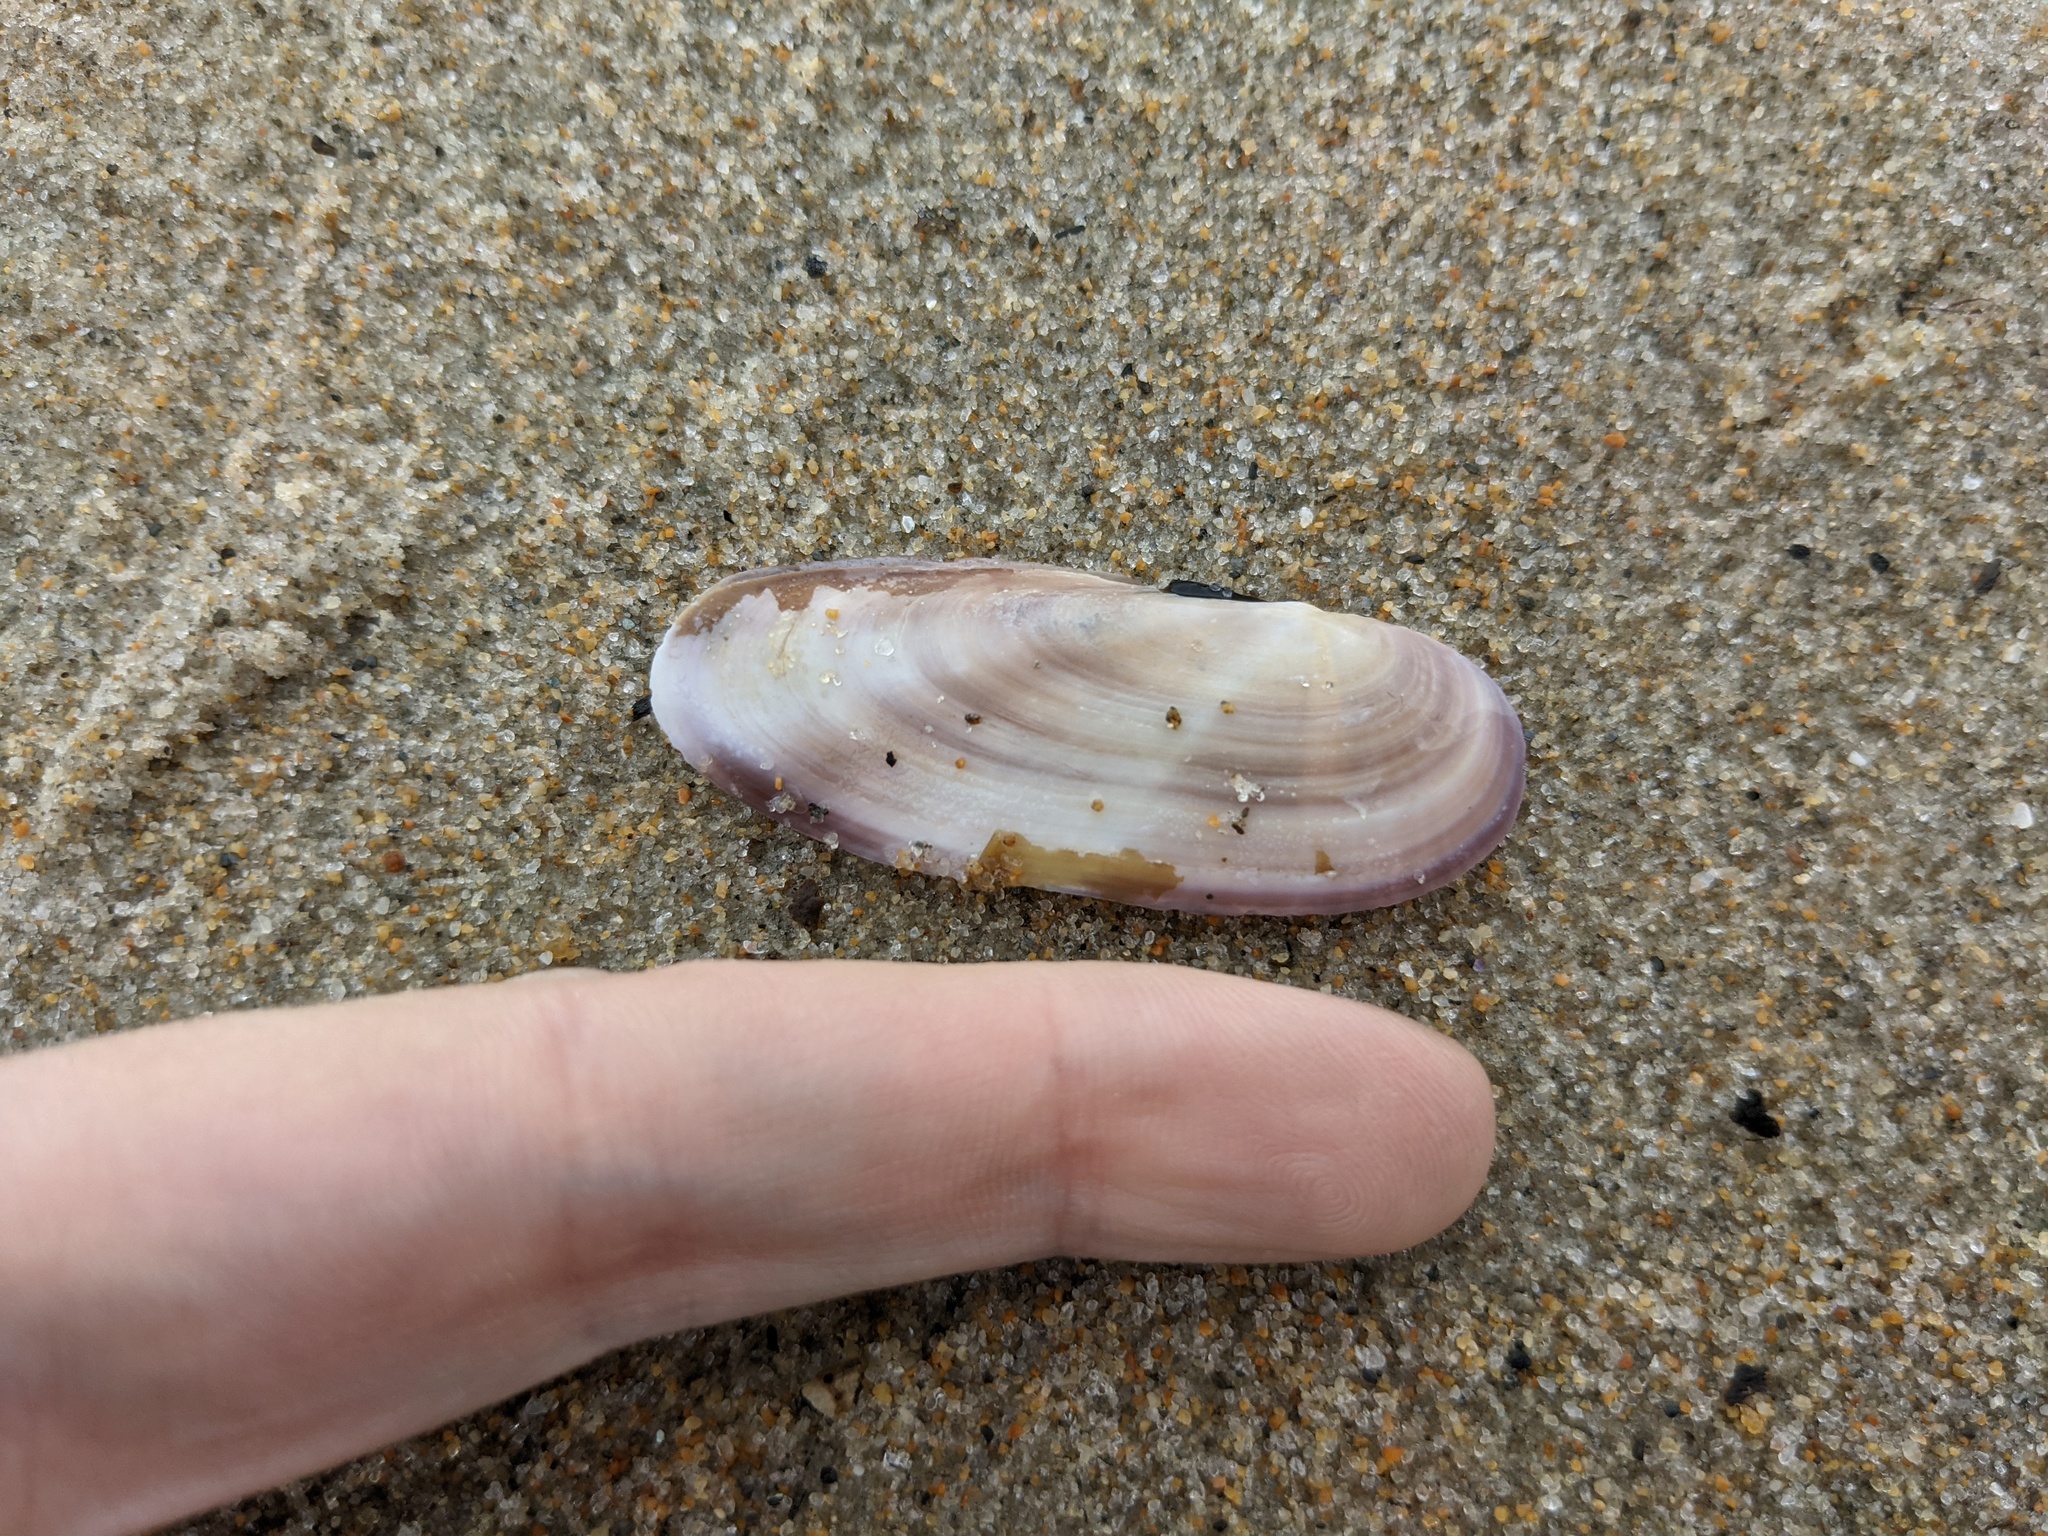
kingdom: Animalia
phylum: Mollusca
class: Bivalvia
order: Adapedonta
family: Pharidae
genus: Siliqua
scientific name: Siliqua costata
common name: Atlantic razor
